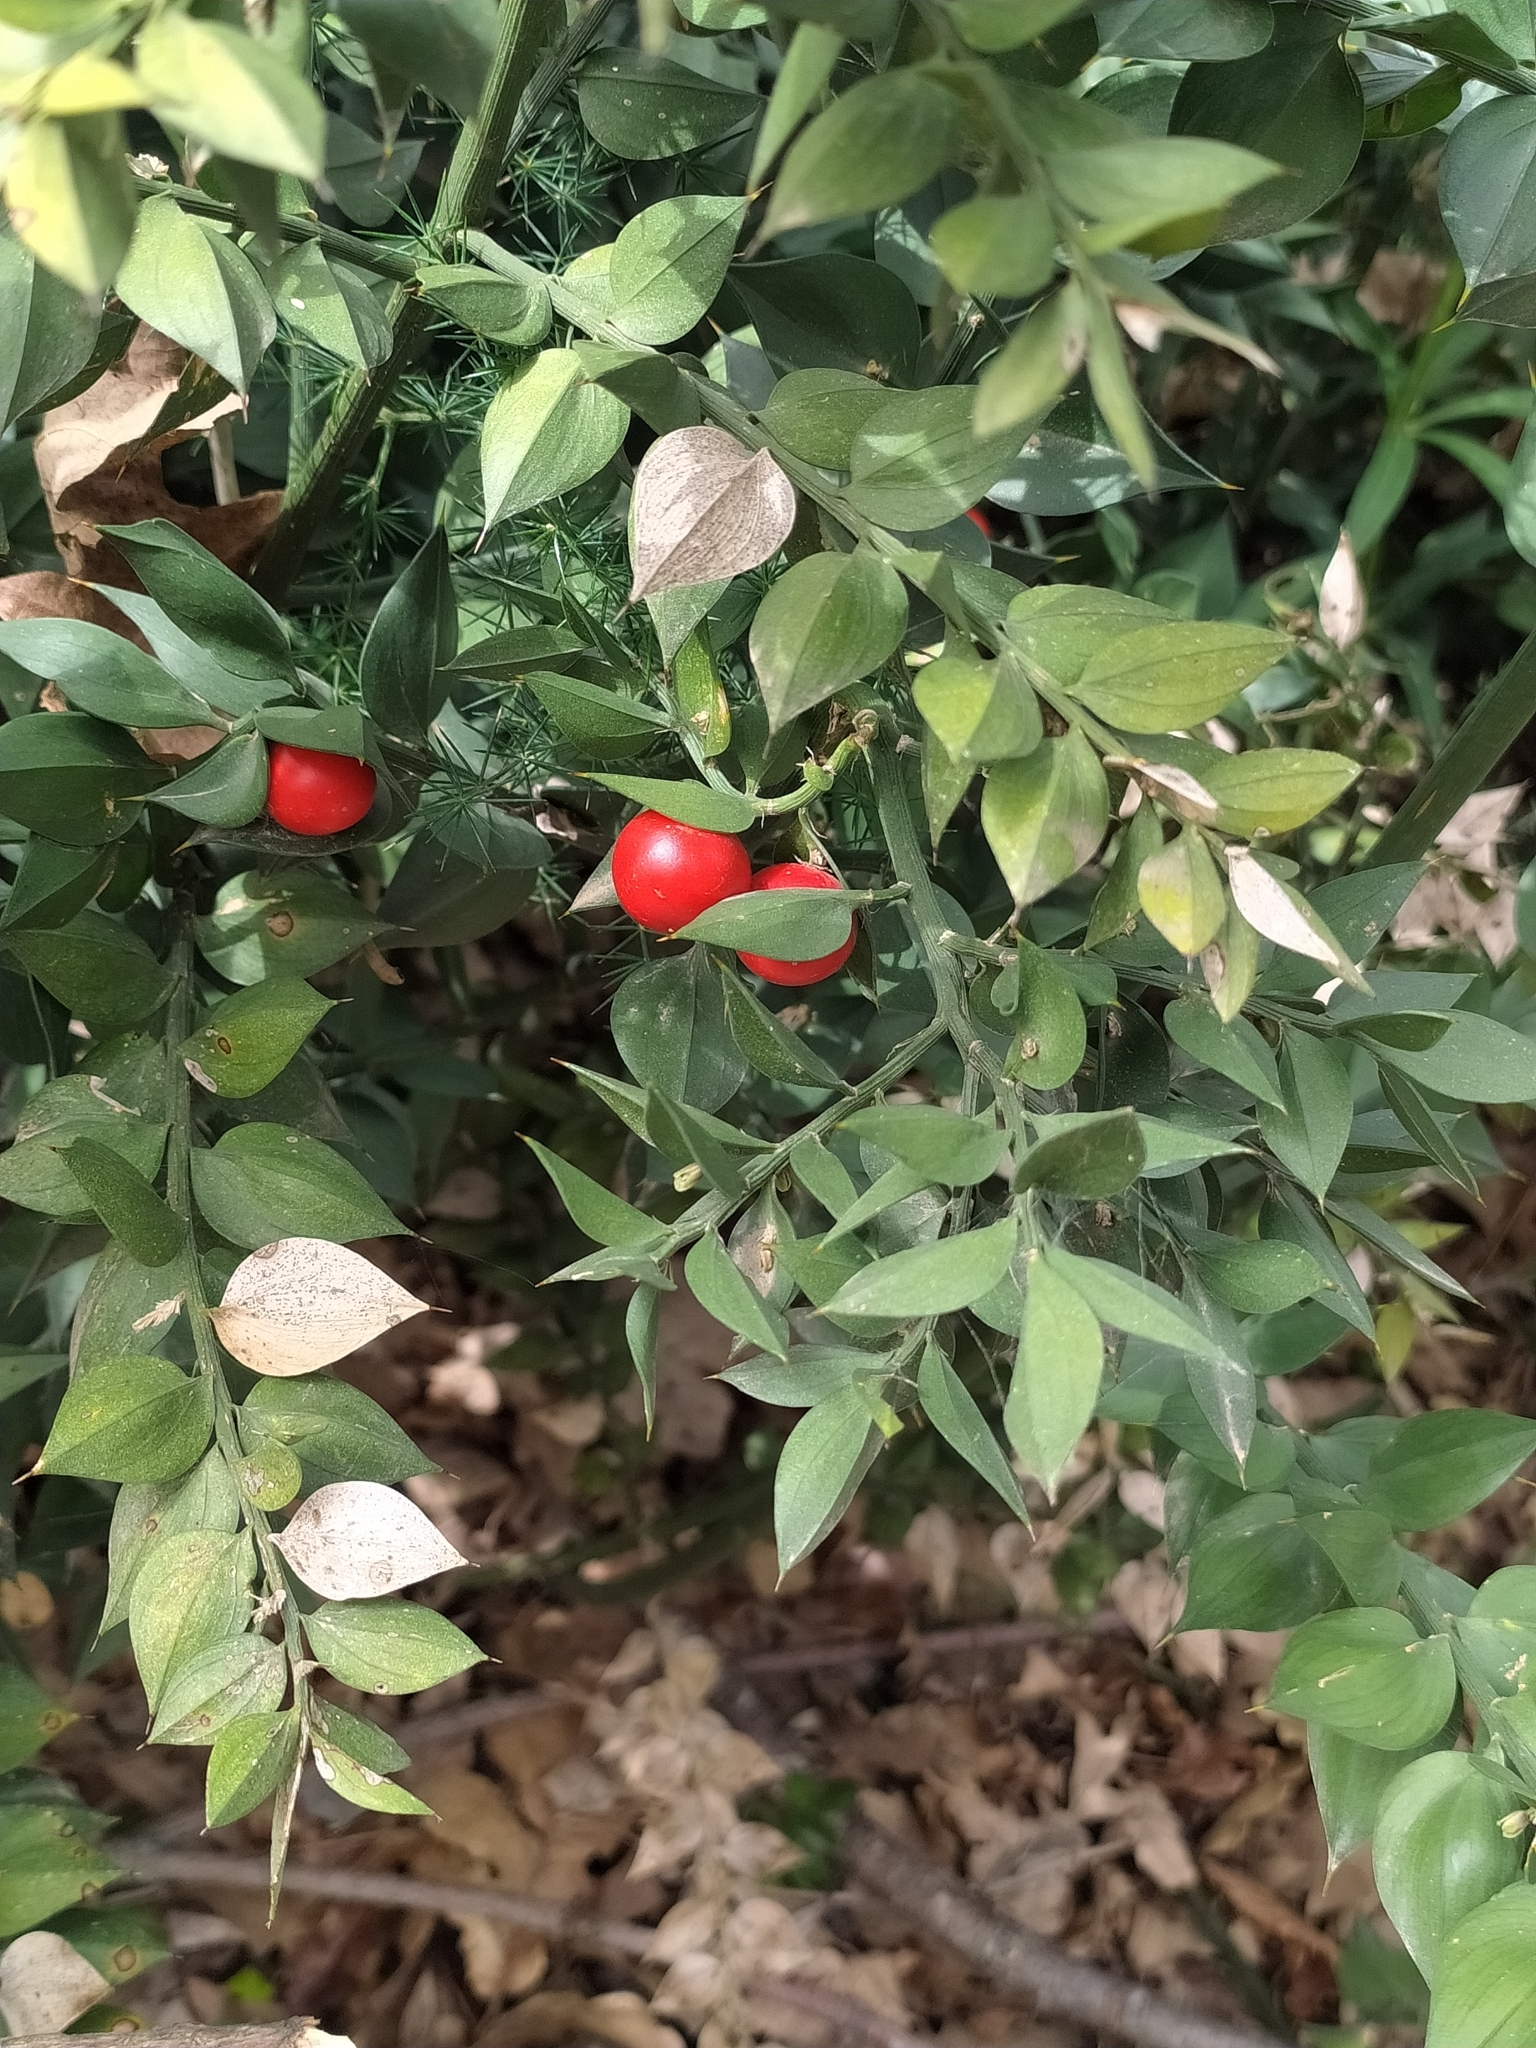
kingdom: Plantae
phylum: Tracheophyta
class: Liliopsida
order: Asparagales
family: Asparagaceae
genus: Ruscus
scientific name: Ruscus aculeatus
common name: Butcher's-broom
